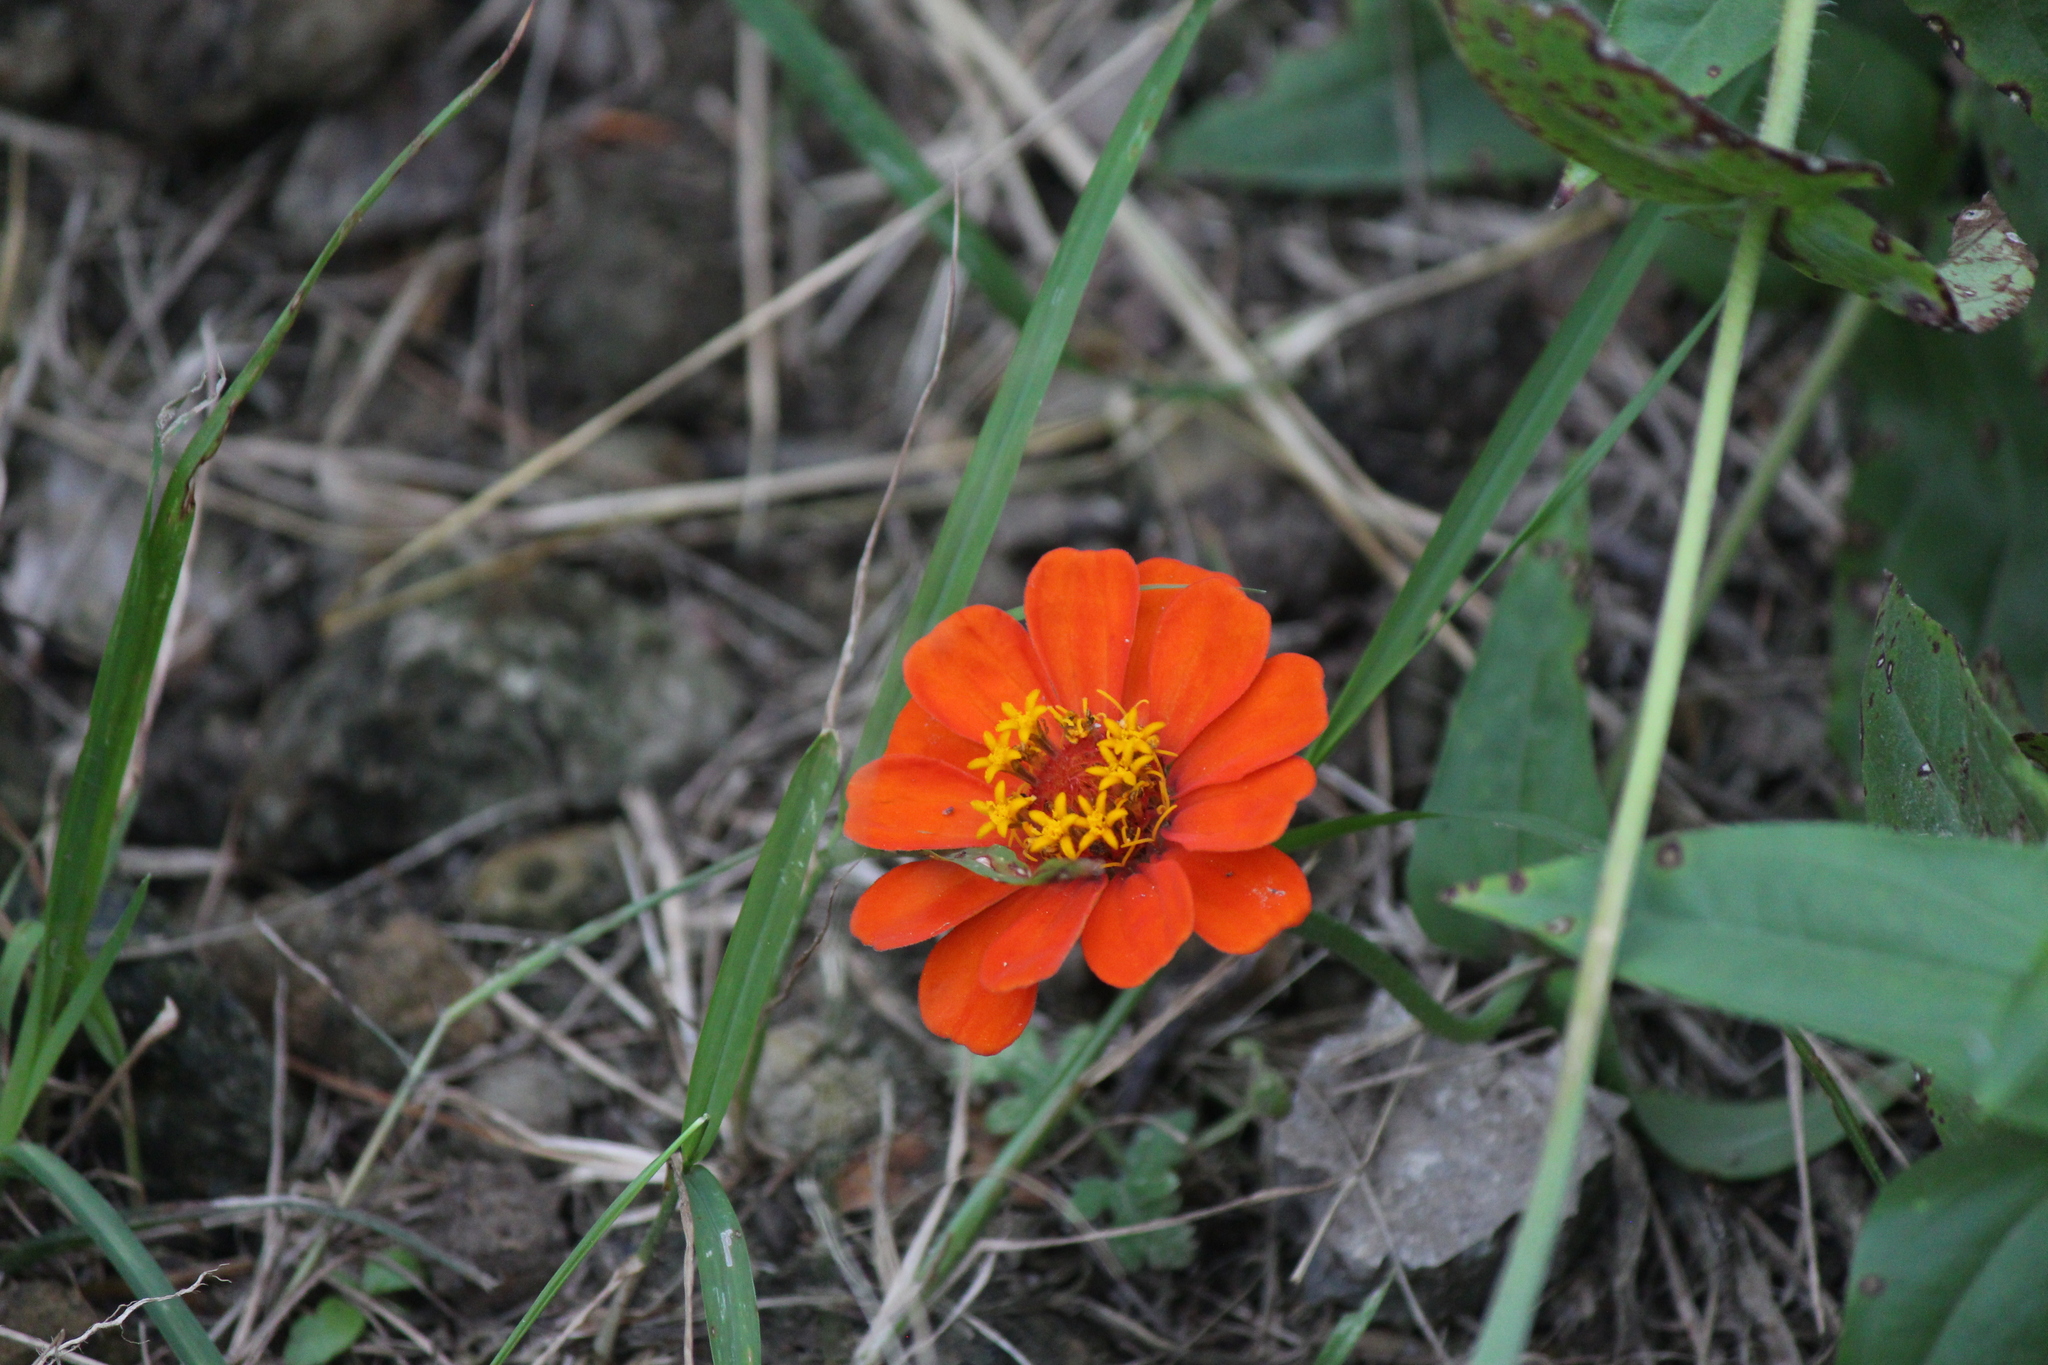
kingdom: Plantae
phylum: Tracheophyta
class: Magnoliopsida
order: Asterales
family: Asteraceae
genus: Zinnia
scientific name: Zinnia elegans
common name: Youth-and-age
